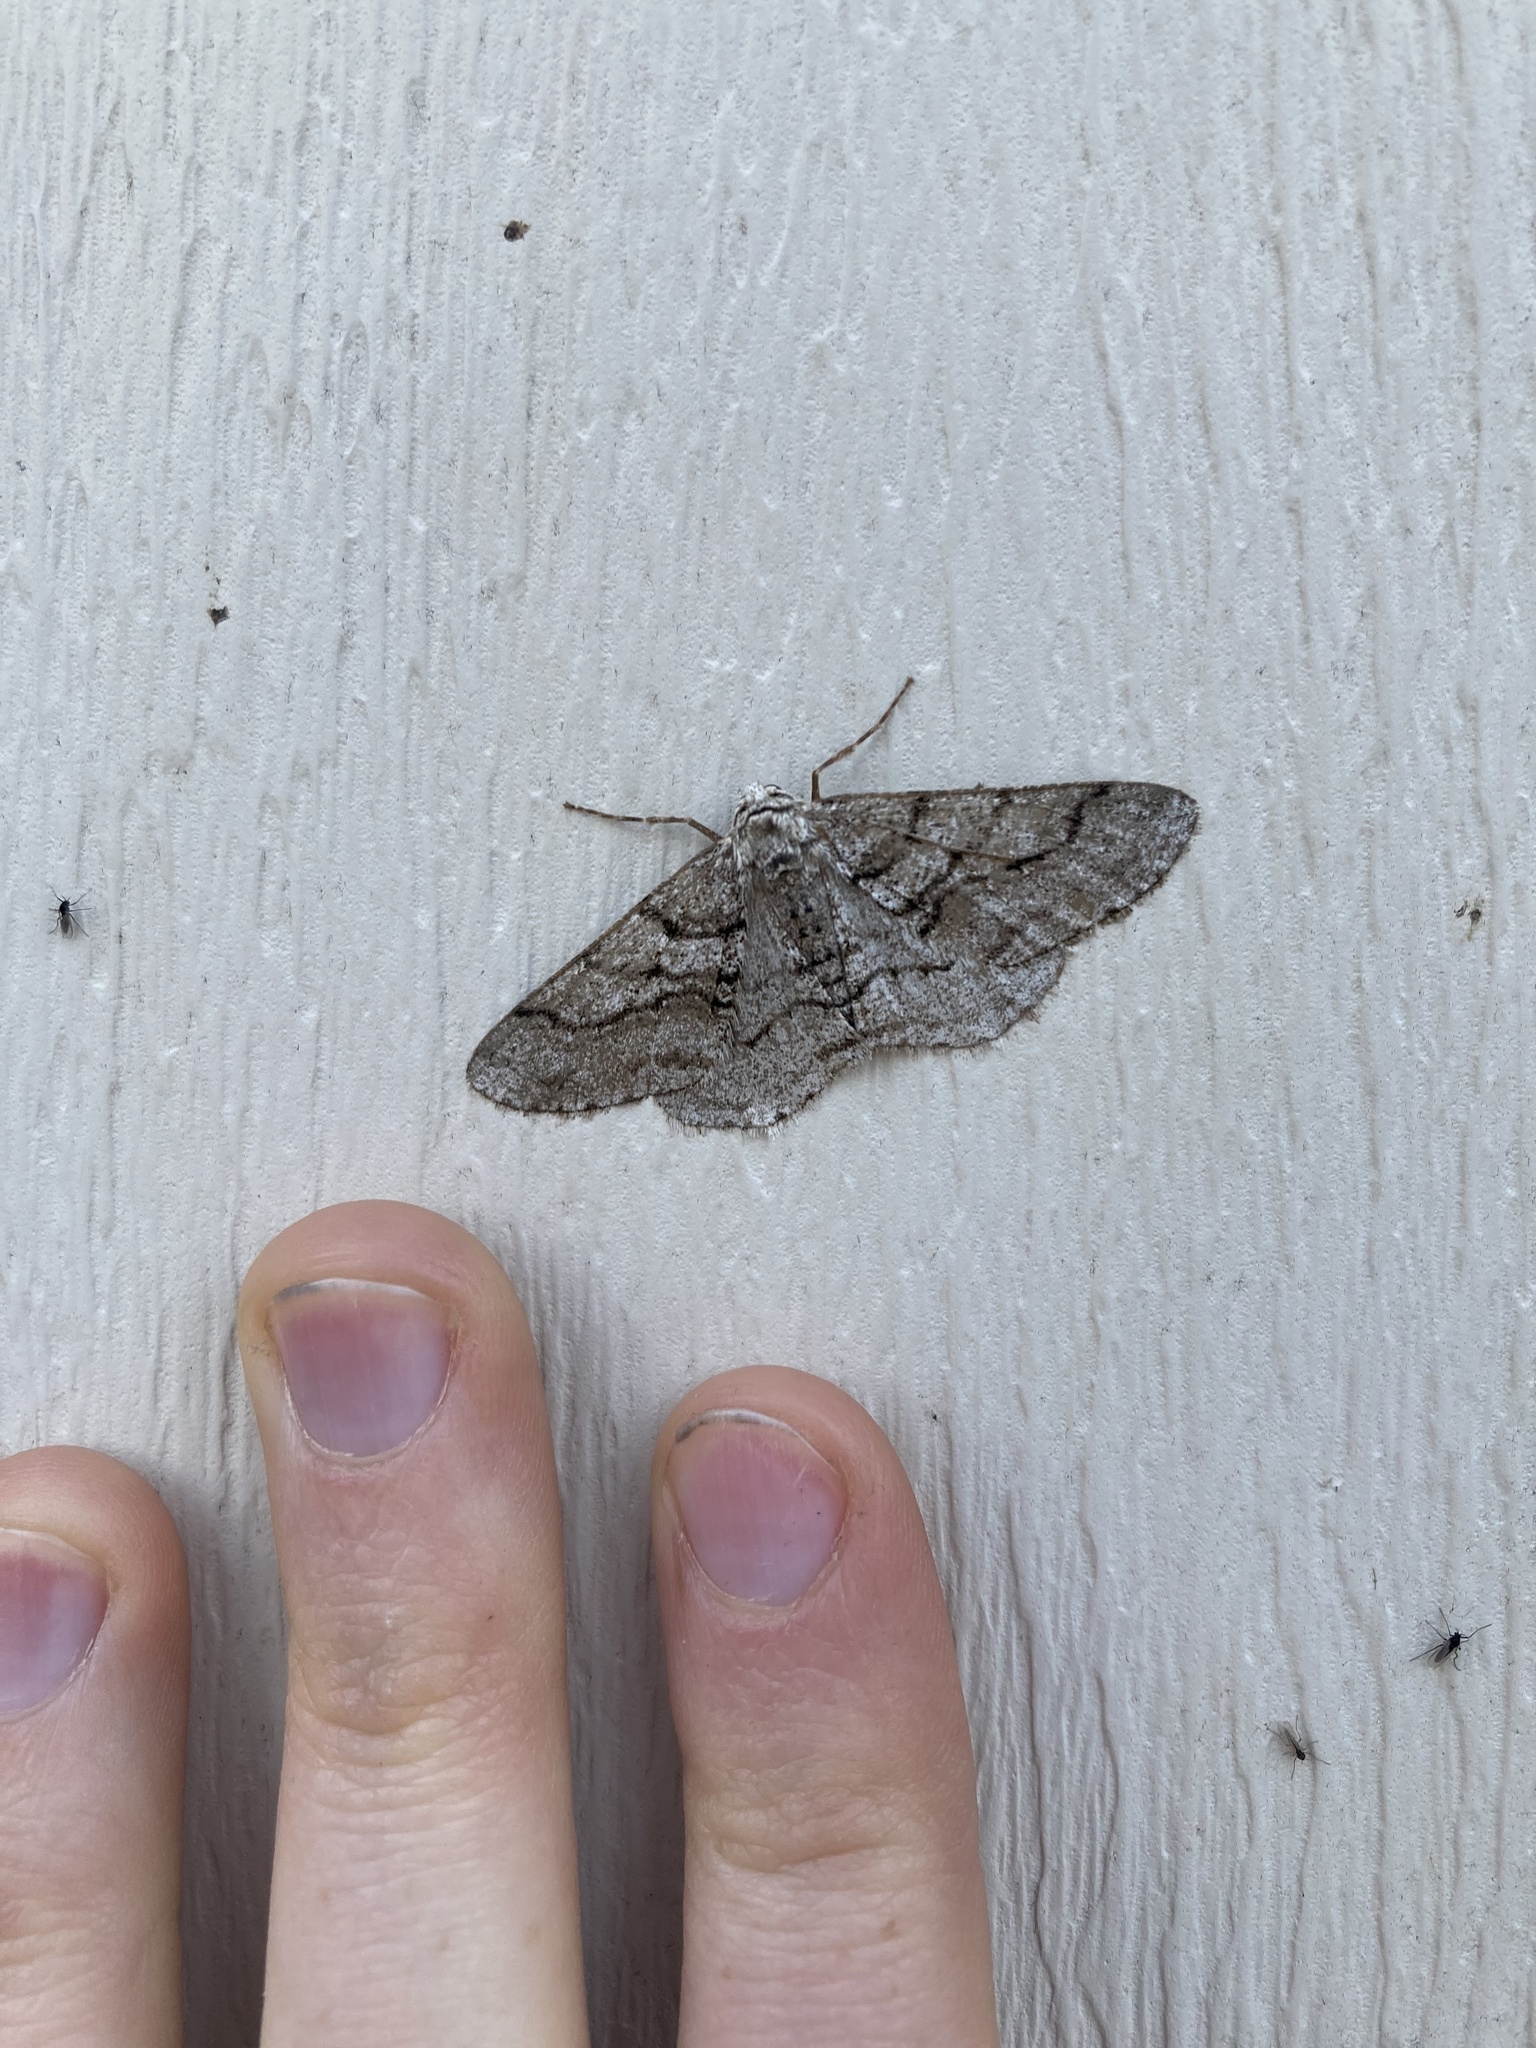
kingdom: Animalia
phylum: Arthropoda
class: Insecta
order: Lepidoptera
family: Geometridae
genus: Phigalia
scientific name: Phigalia titea
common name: Spiny looper
